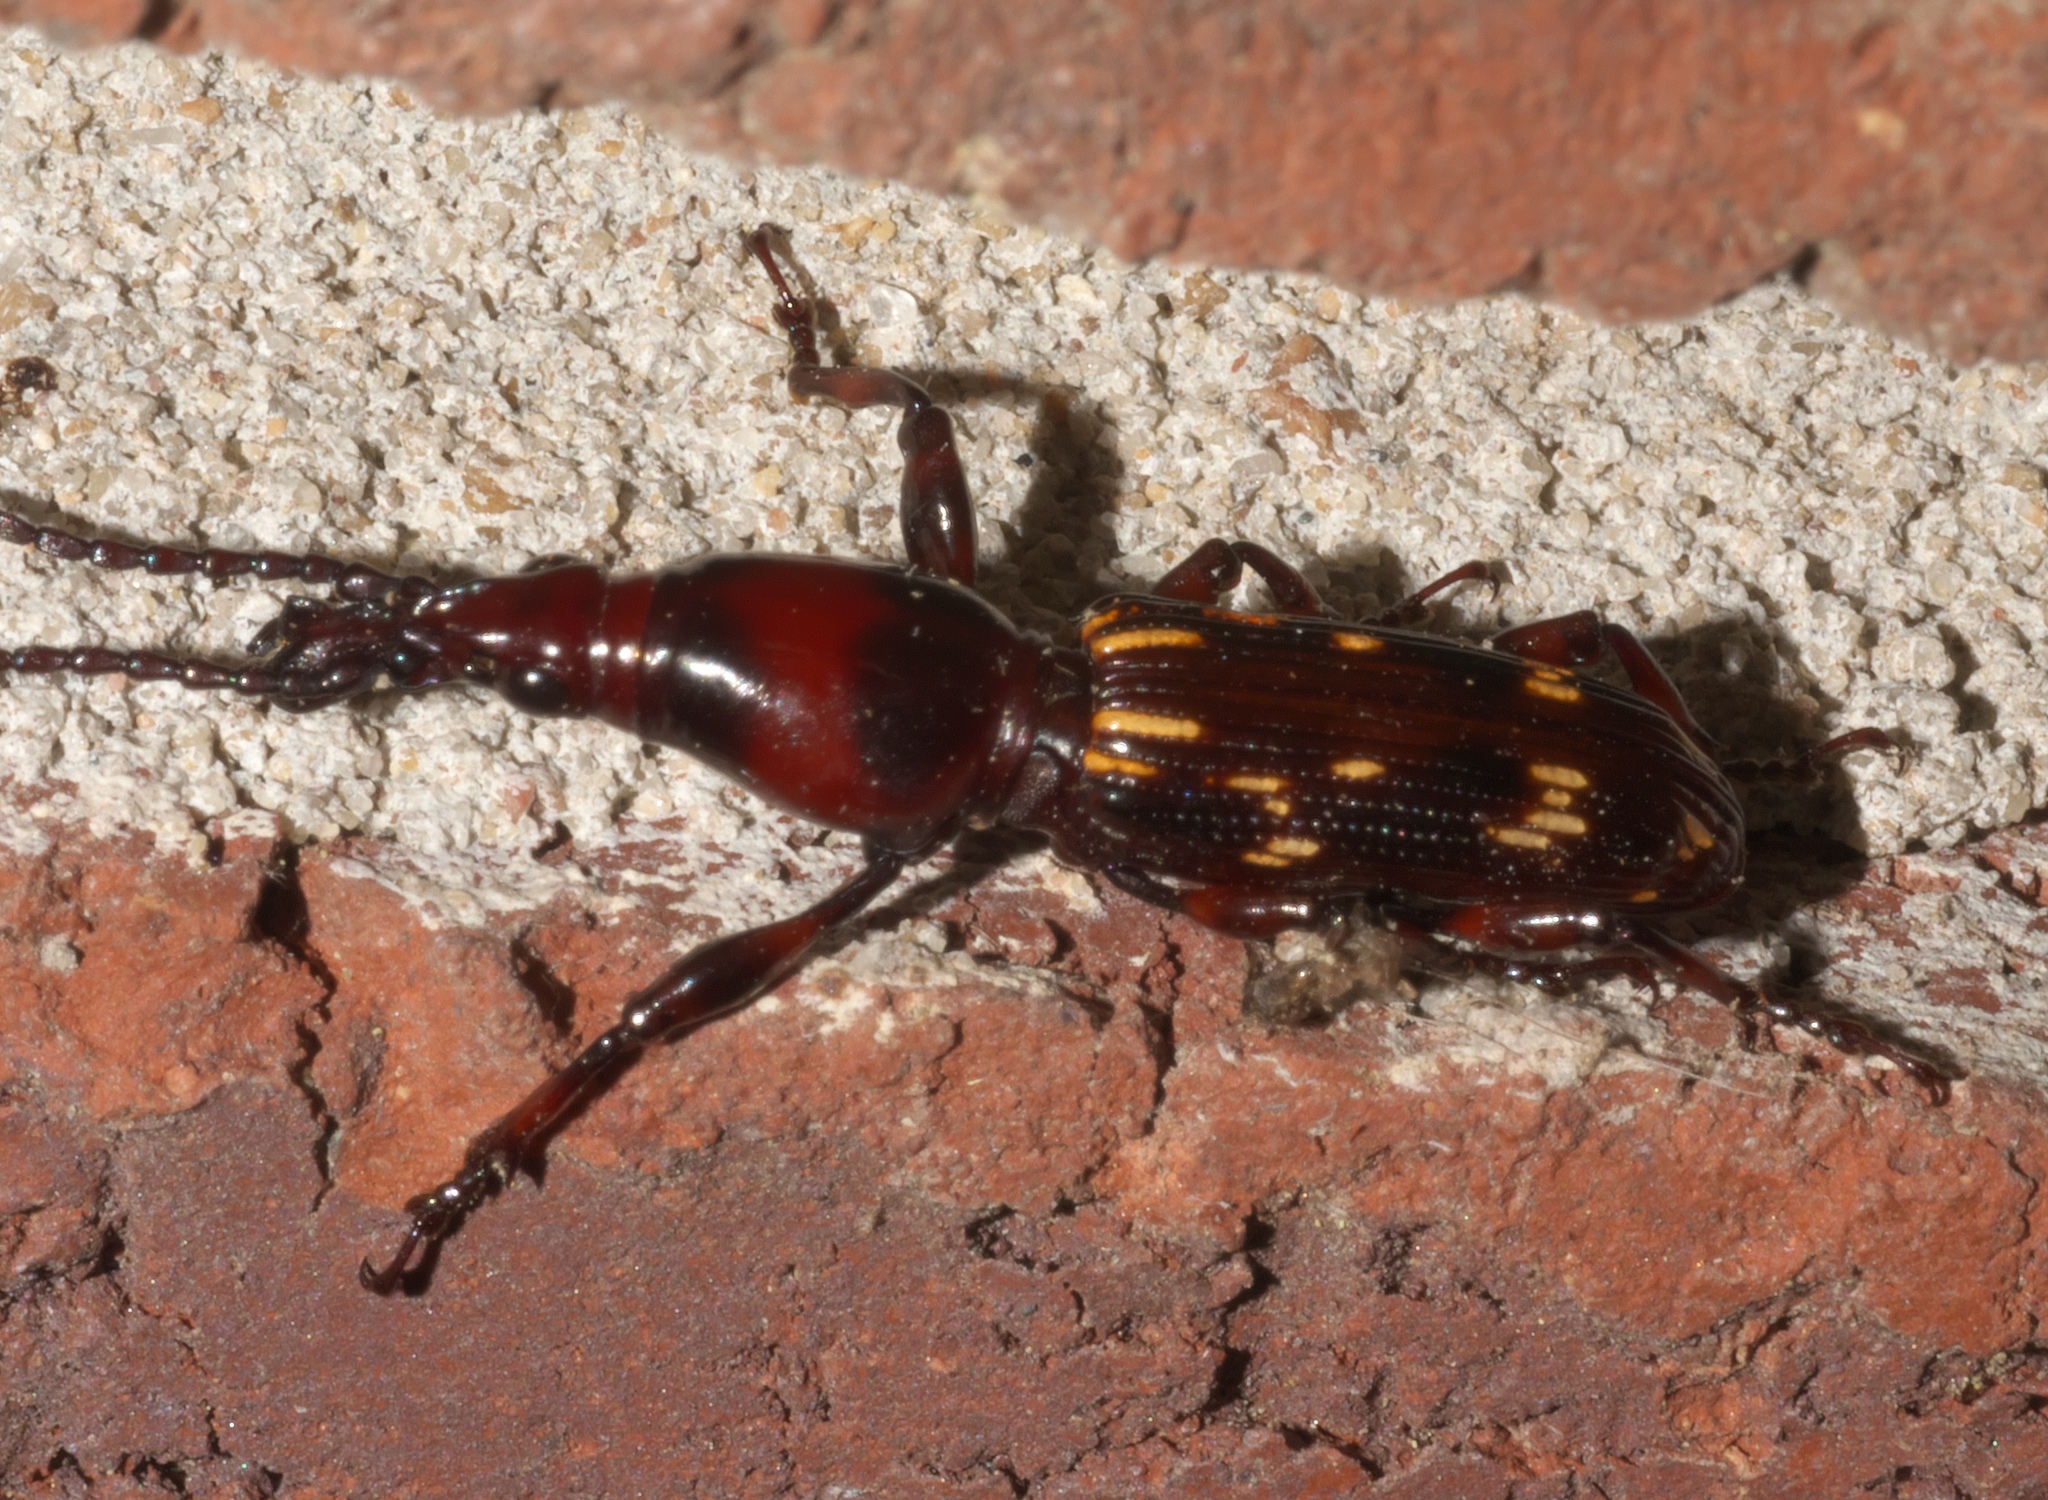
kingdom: Animalia
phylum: Arthropoda
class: Insecta
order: Coleoptera
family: Brentidae
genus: Arrenodes
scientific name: Arrenodes minutus
